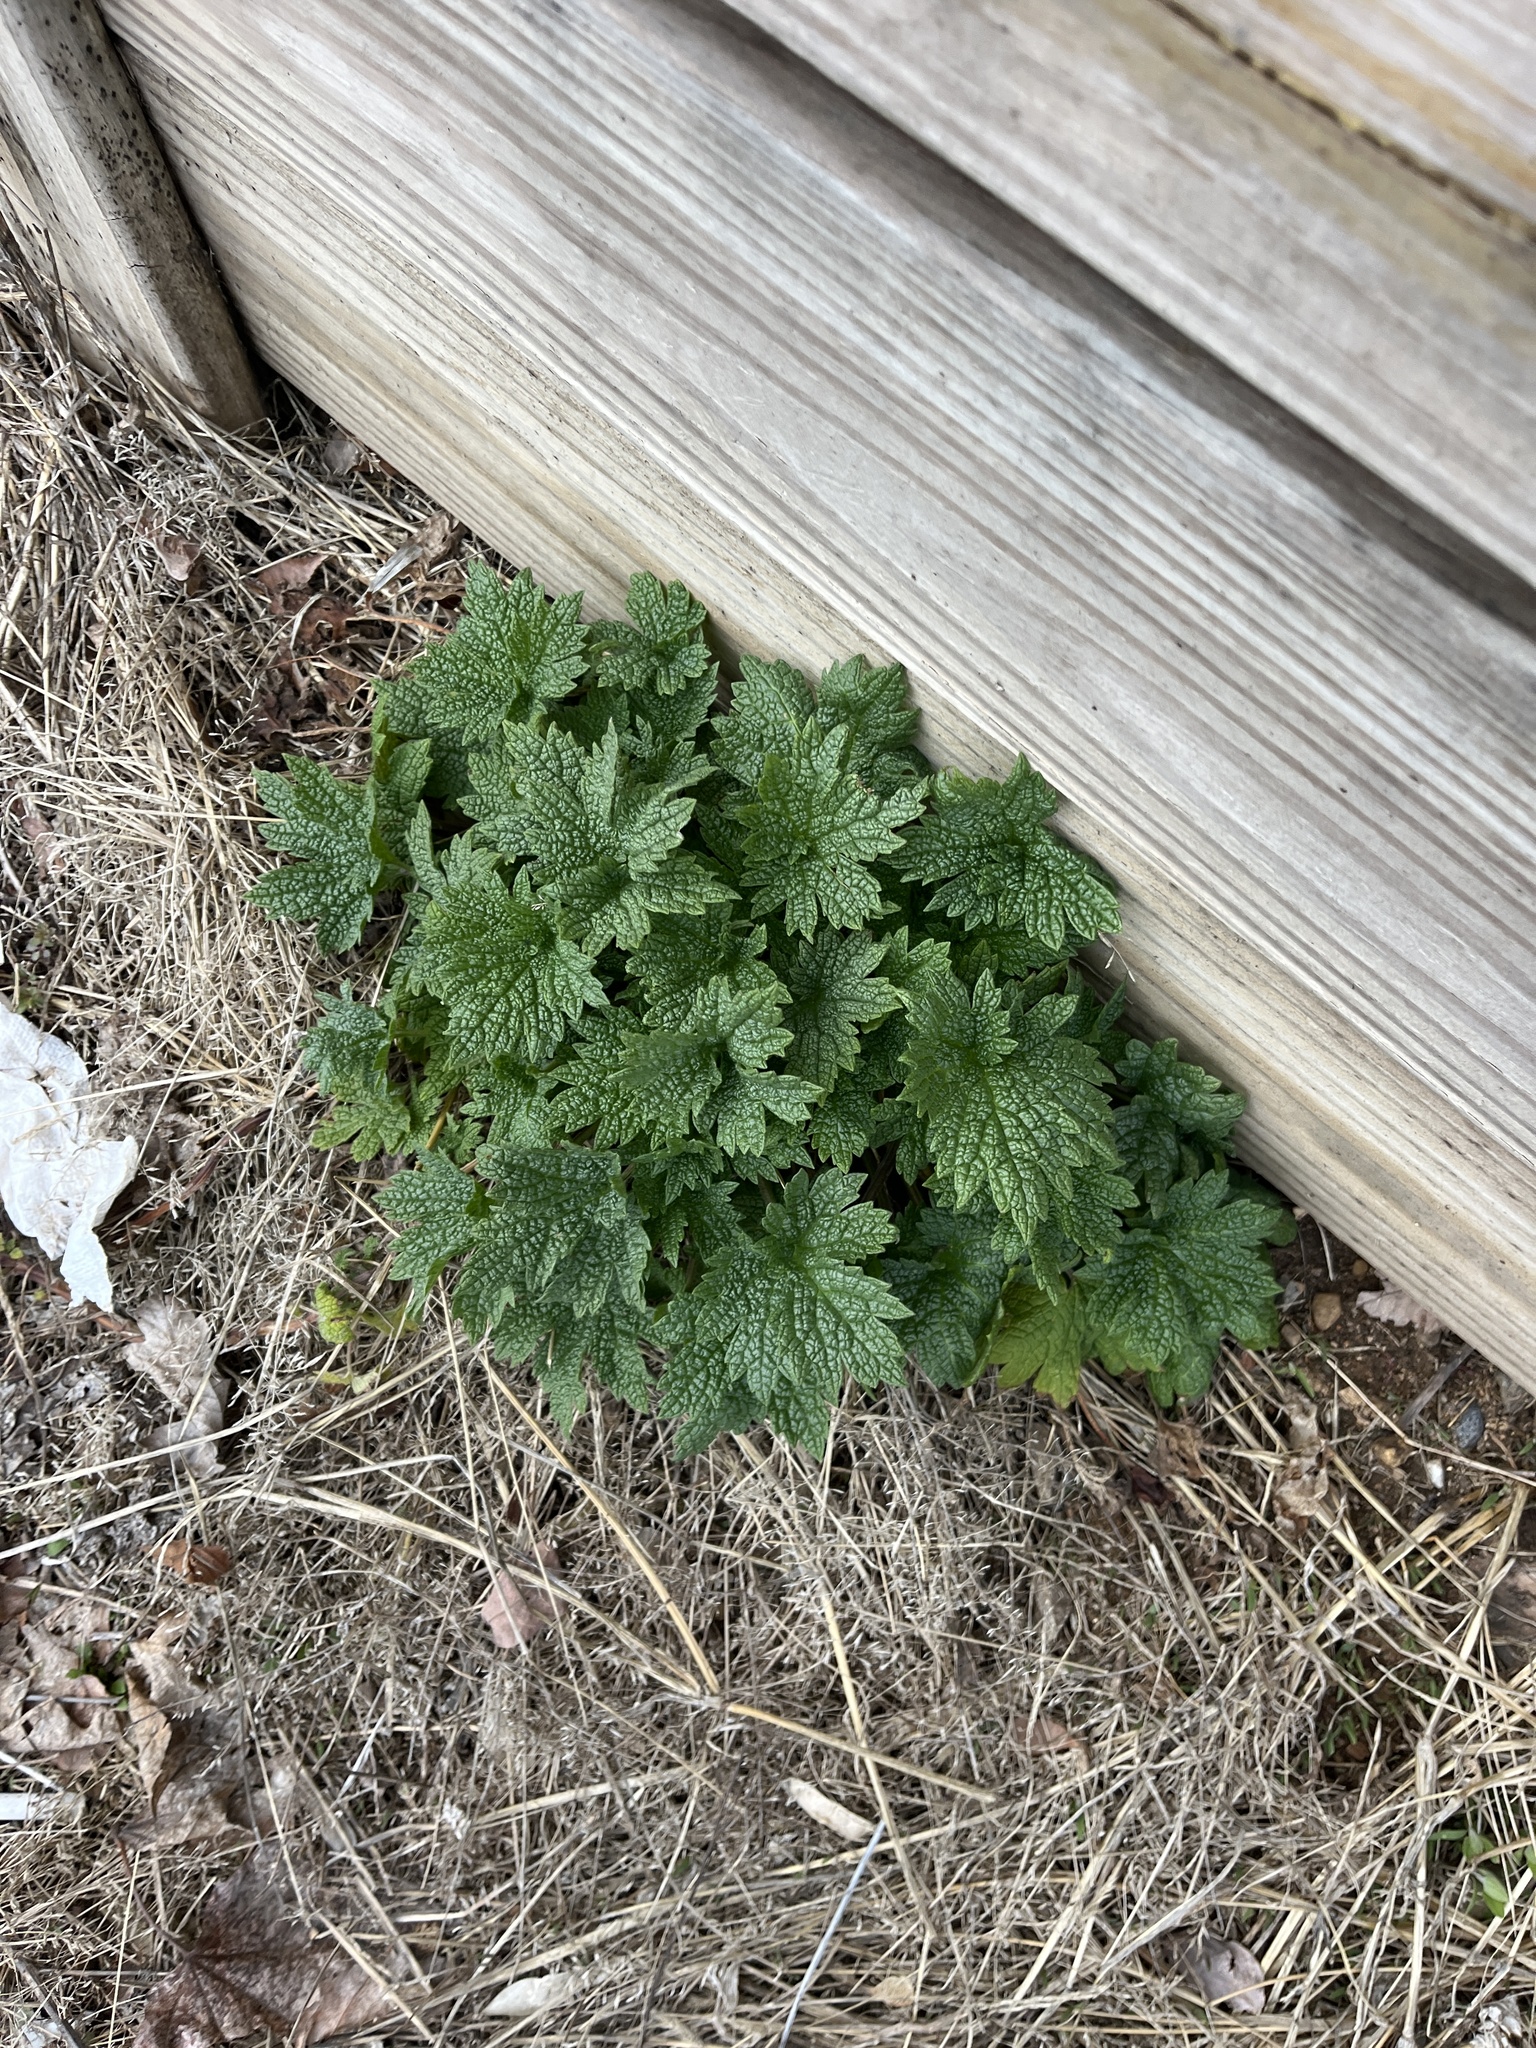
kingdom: Plantae
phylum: Tracheophyta
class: Magnoliopsida
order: Lamiales
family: Lamiaceae
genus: Leonurus
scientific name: Leonurus cardiaca
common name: Motherwort
